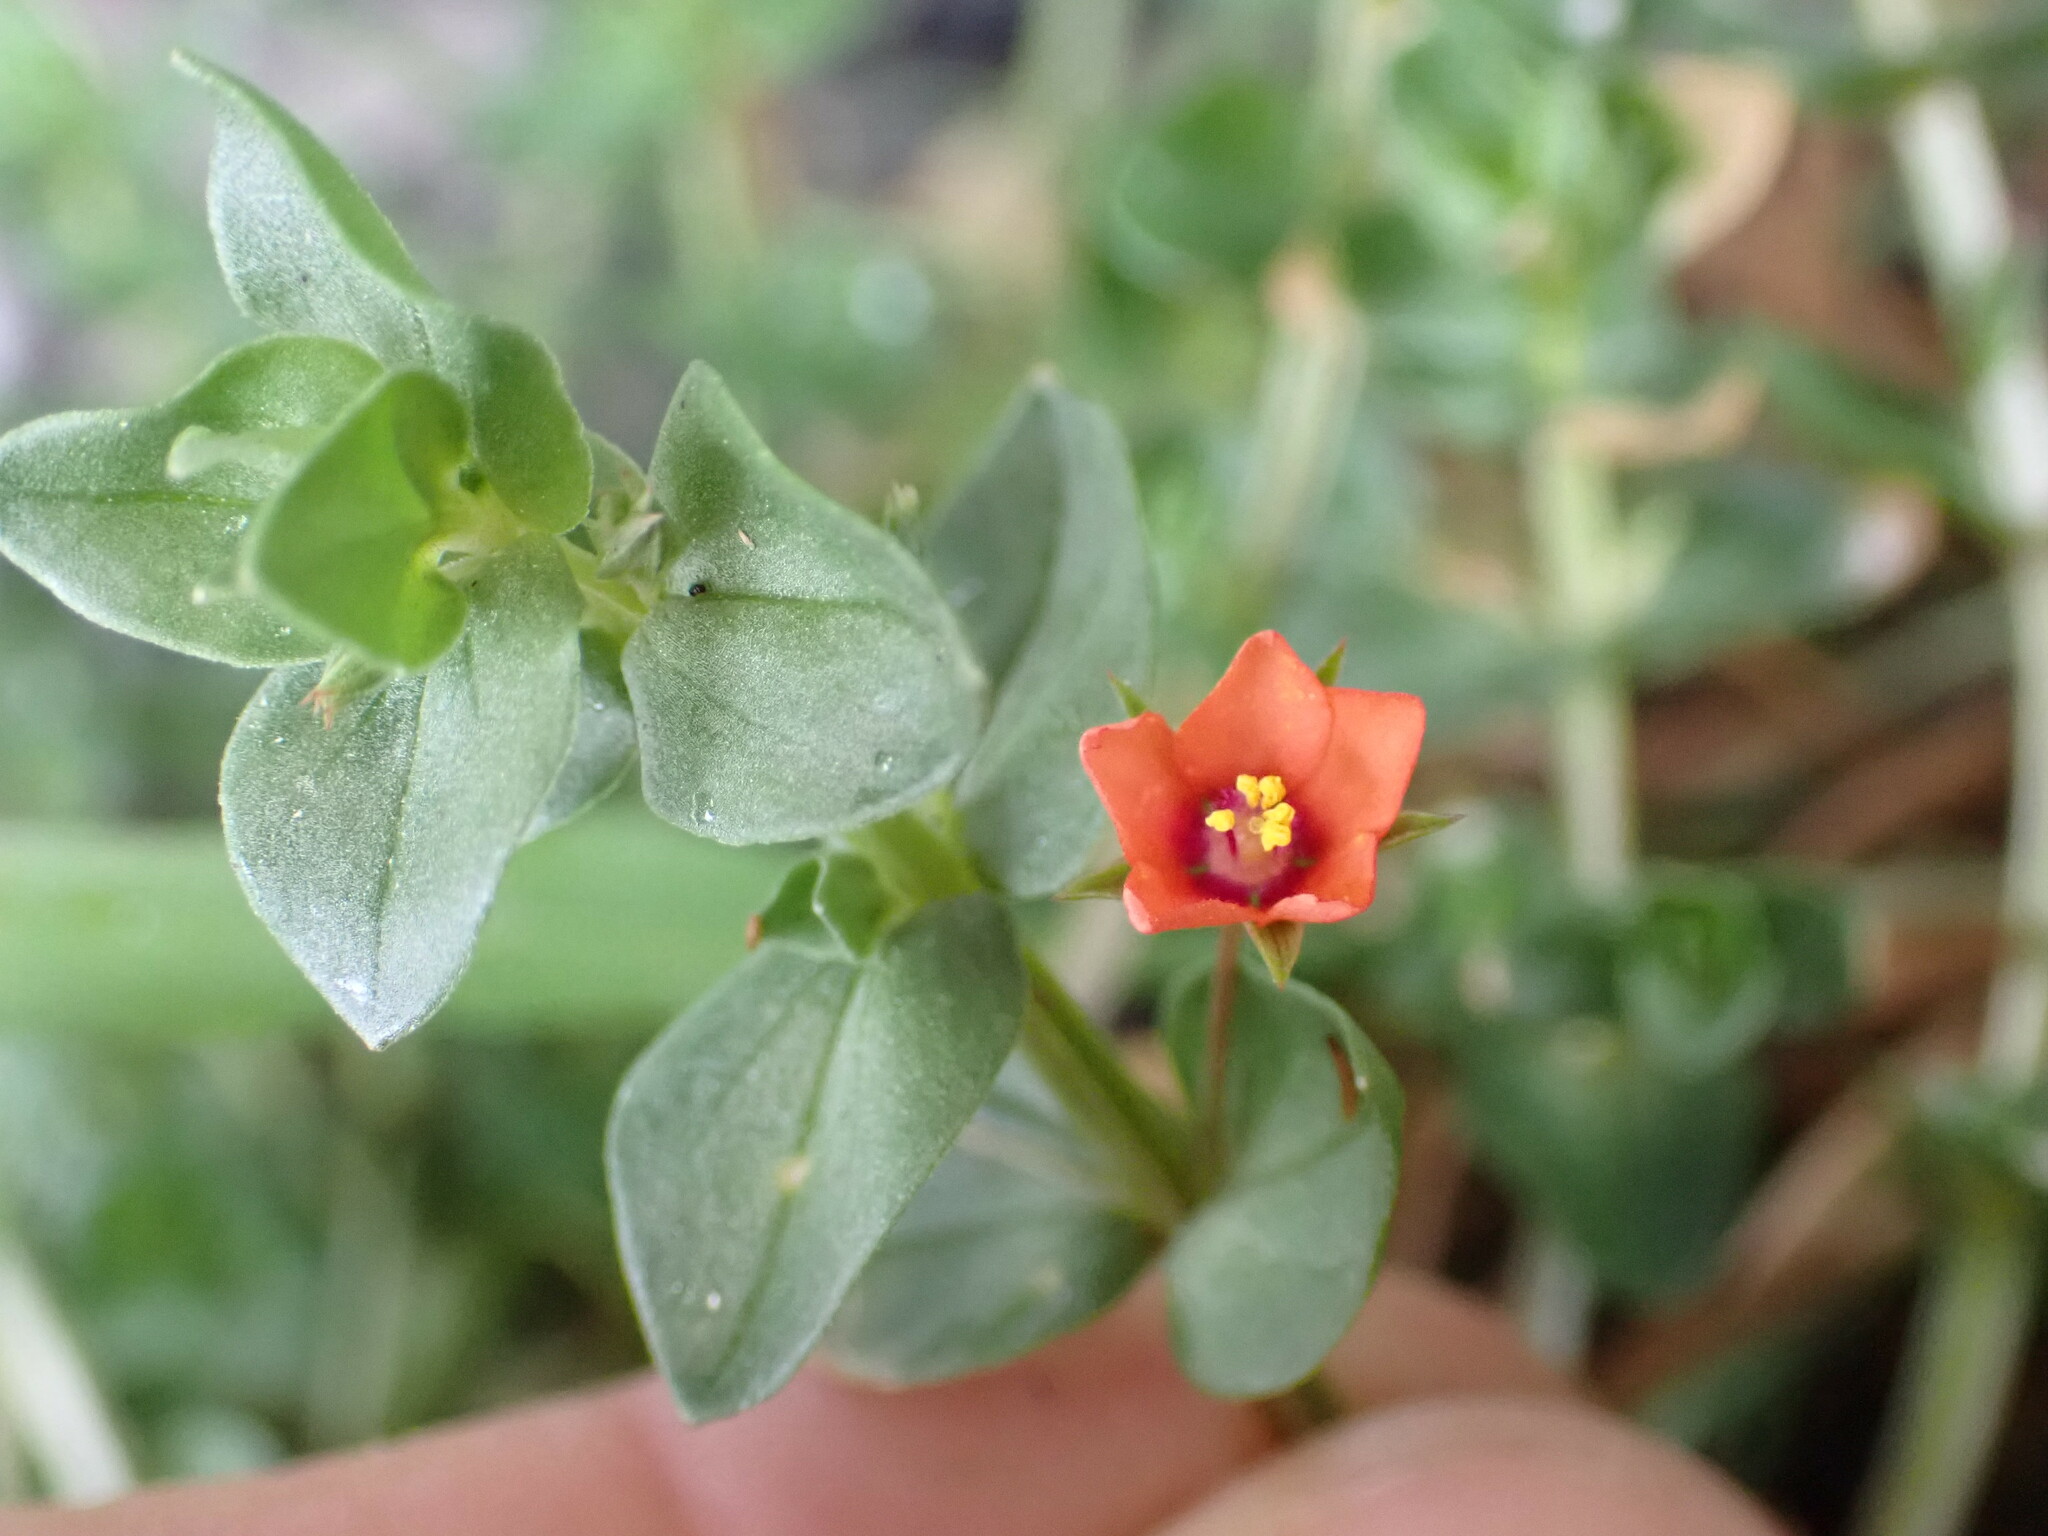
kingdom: Plantae
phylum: Tracheophyta
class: Magnoliopsida
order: Ericales
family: Primulaceae
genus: Lysimachia
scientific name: Lysimachia arvensis
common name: Scarlet pimpernel
